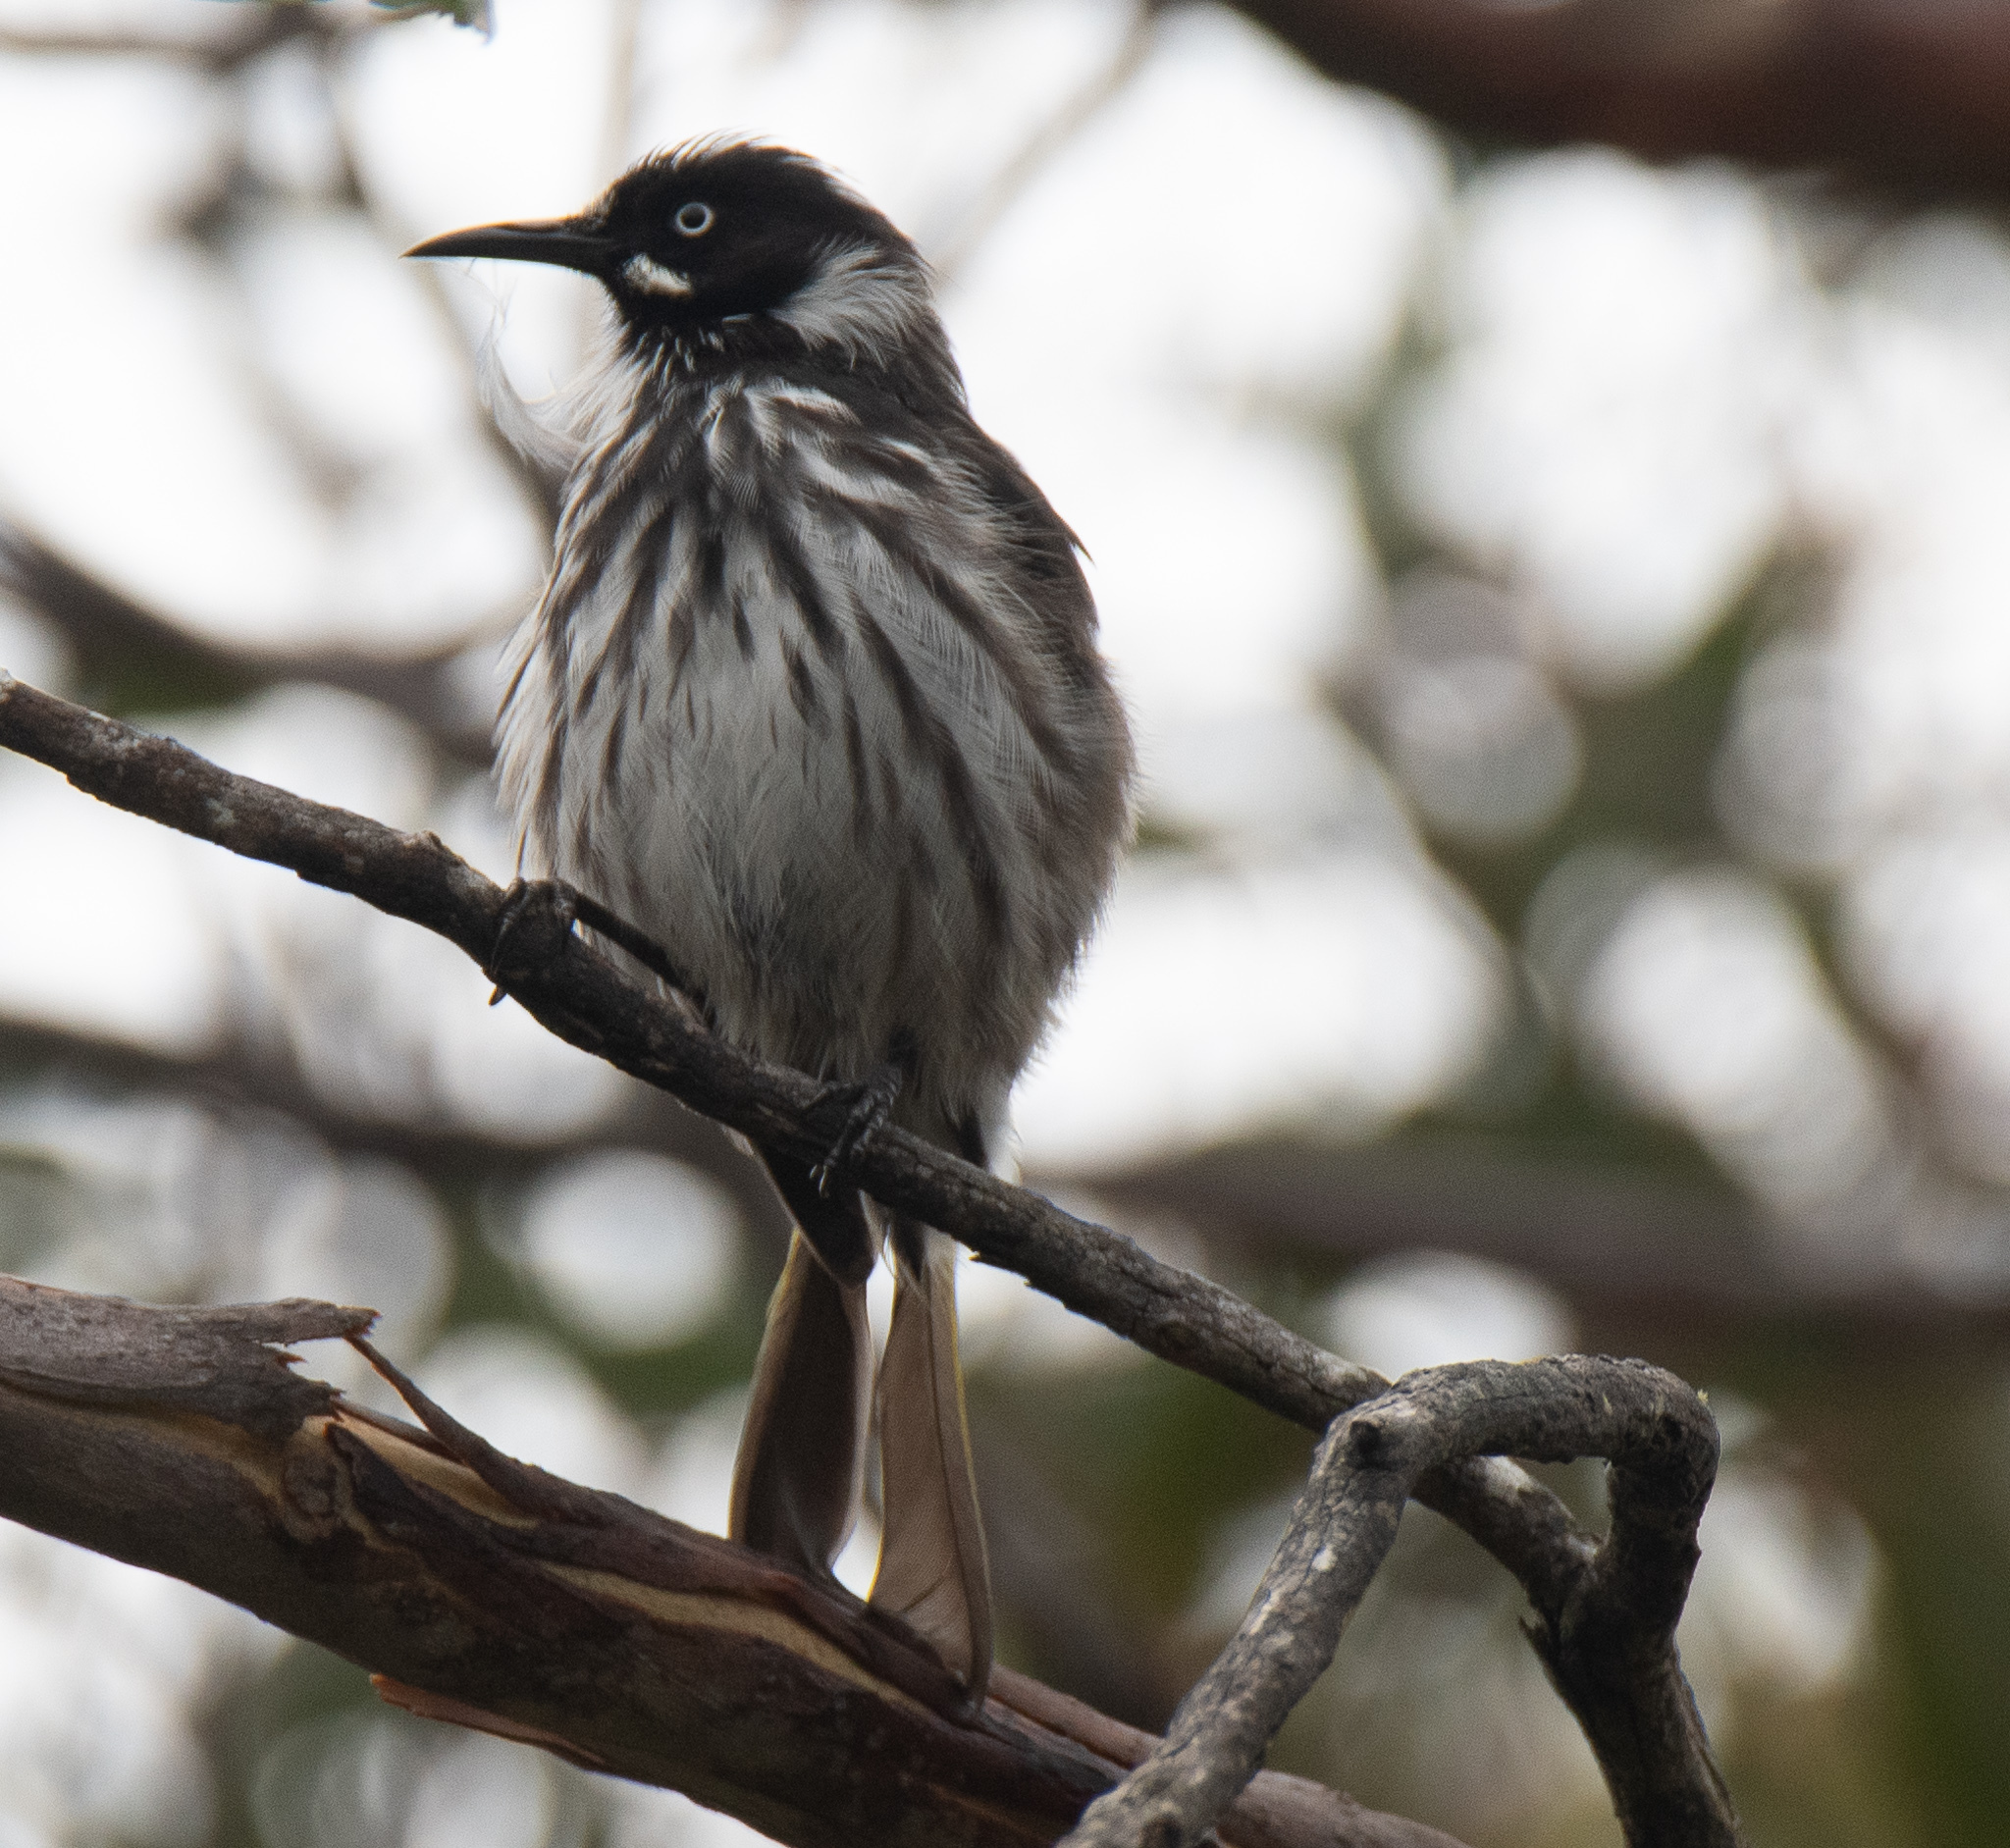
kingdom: Animalia
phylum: Chordata
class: Aves
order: Passeriformes
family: Meliphagidae
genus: Phylidonyris
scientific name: Phylidonyris novaehollandiae
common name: New holland honeyeater
